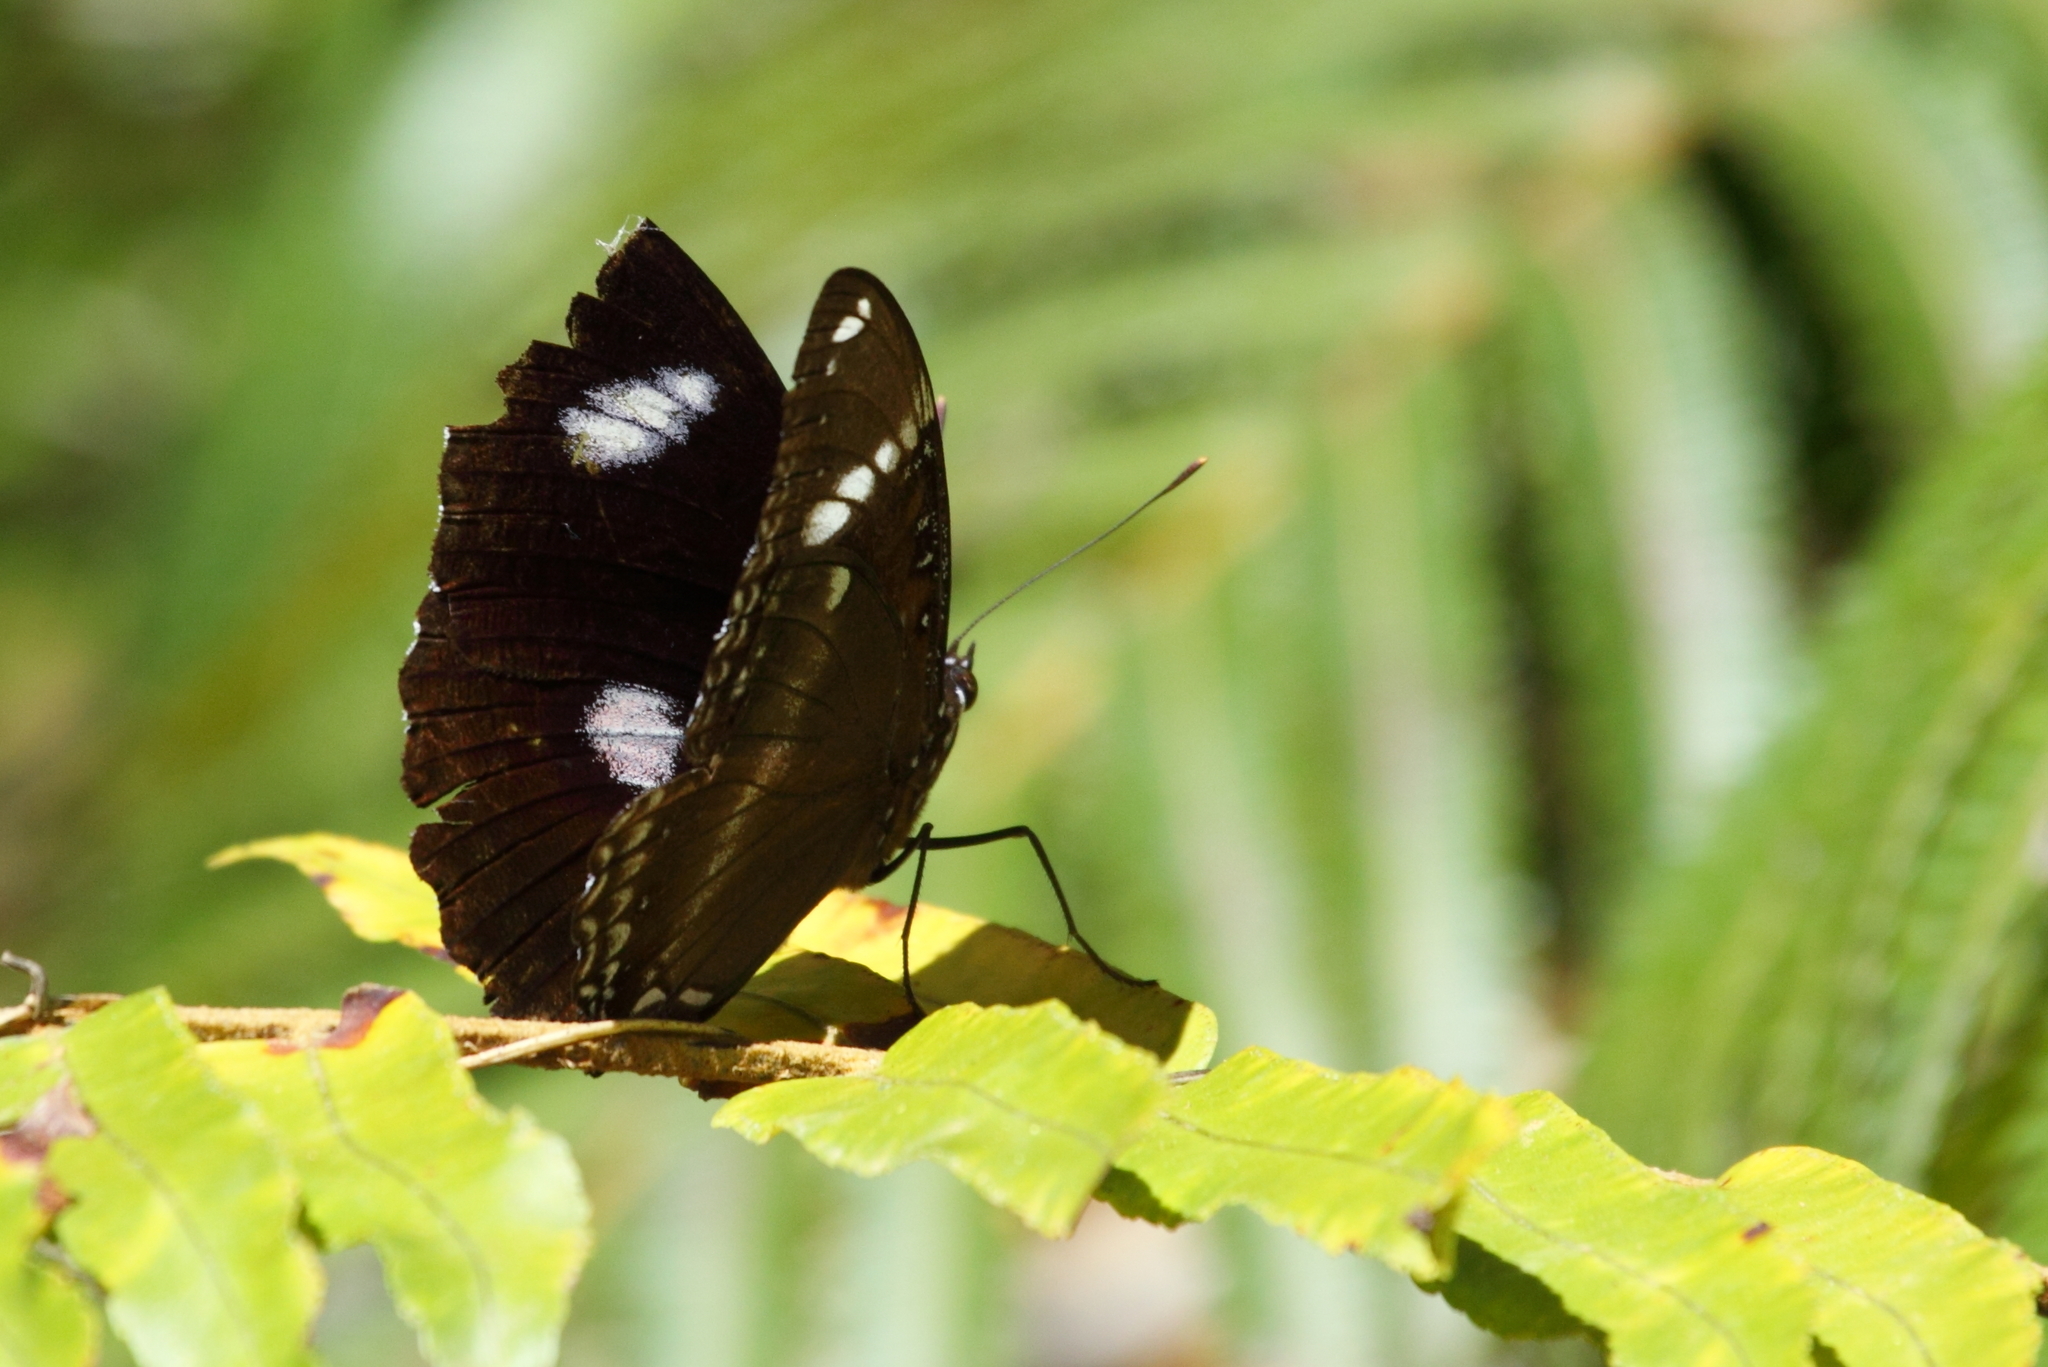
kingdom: Animalia
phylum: Arthropoda
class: Insecta
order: Lepidoptera
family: Nymphalidae
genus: Hypolimnas
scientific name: Hypolimnas bolina
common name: Great eggfly
